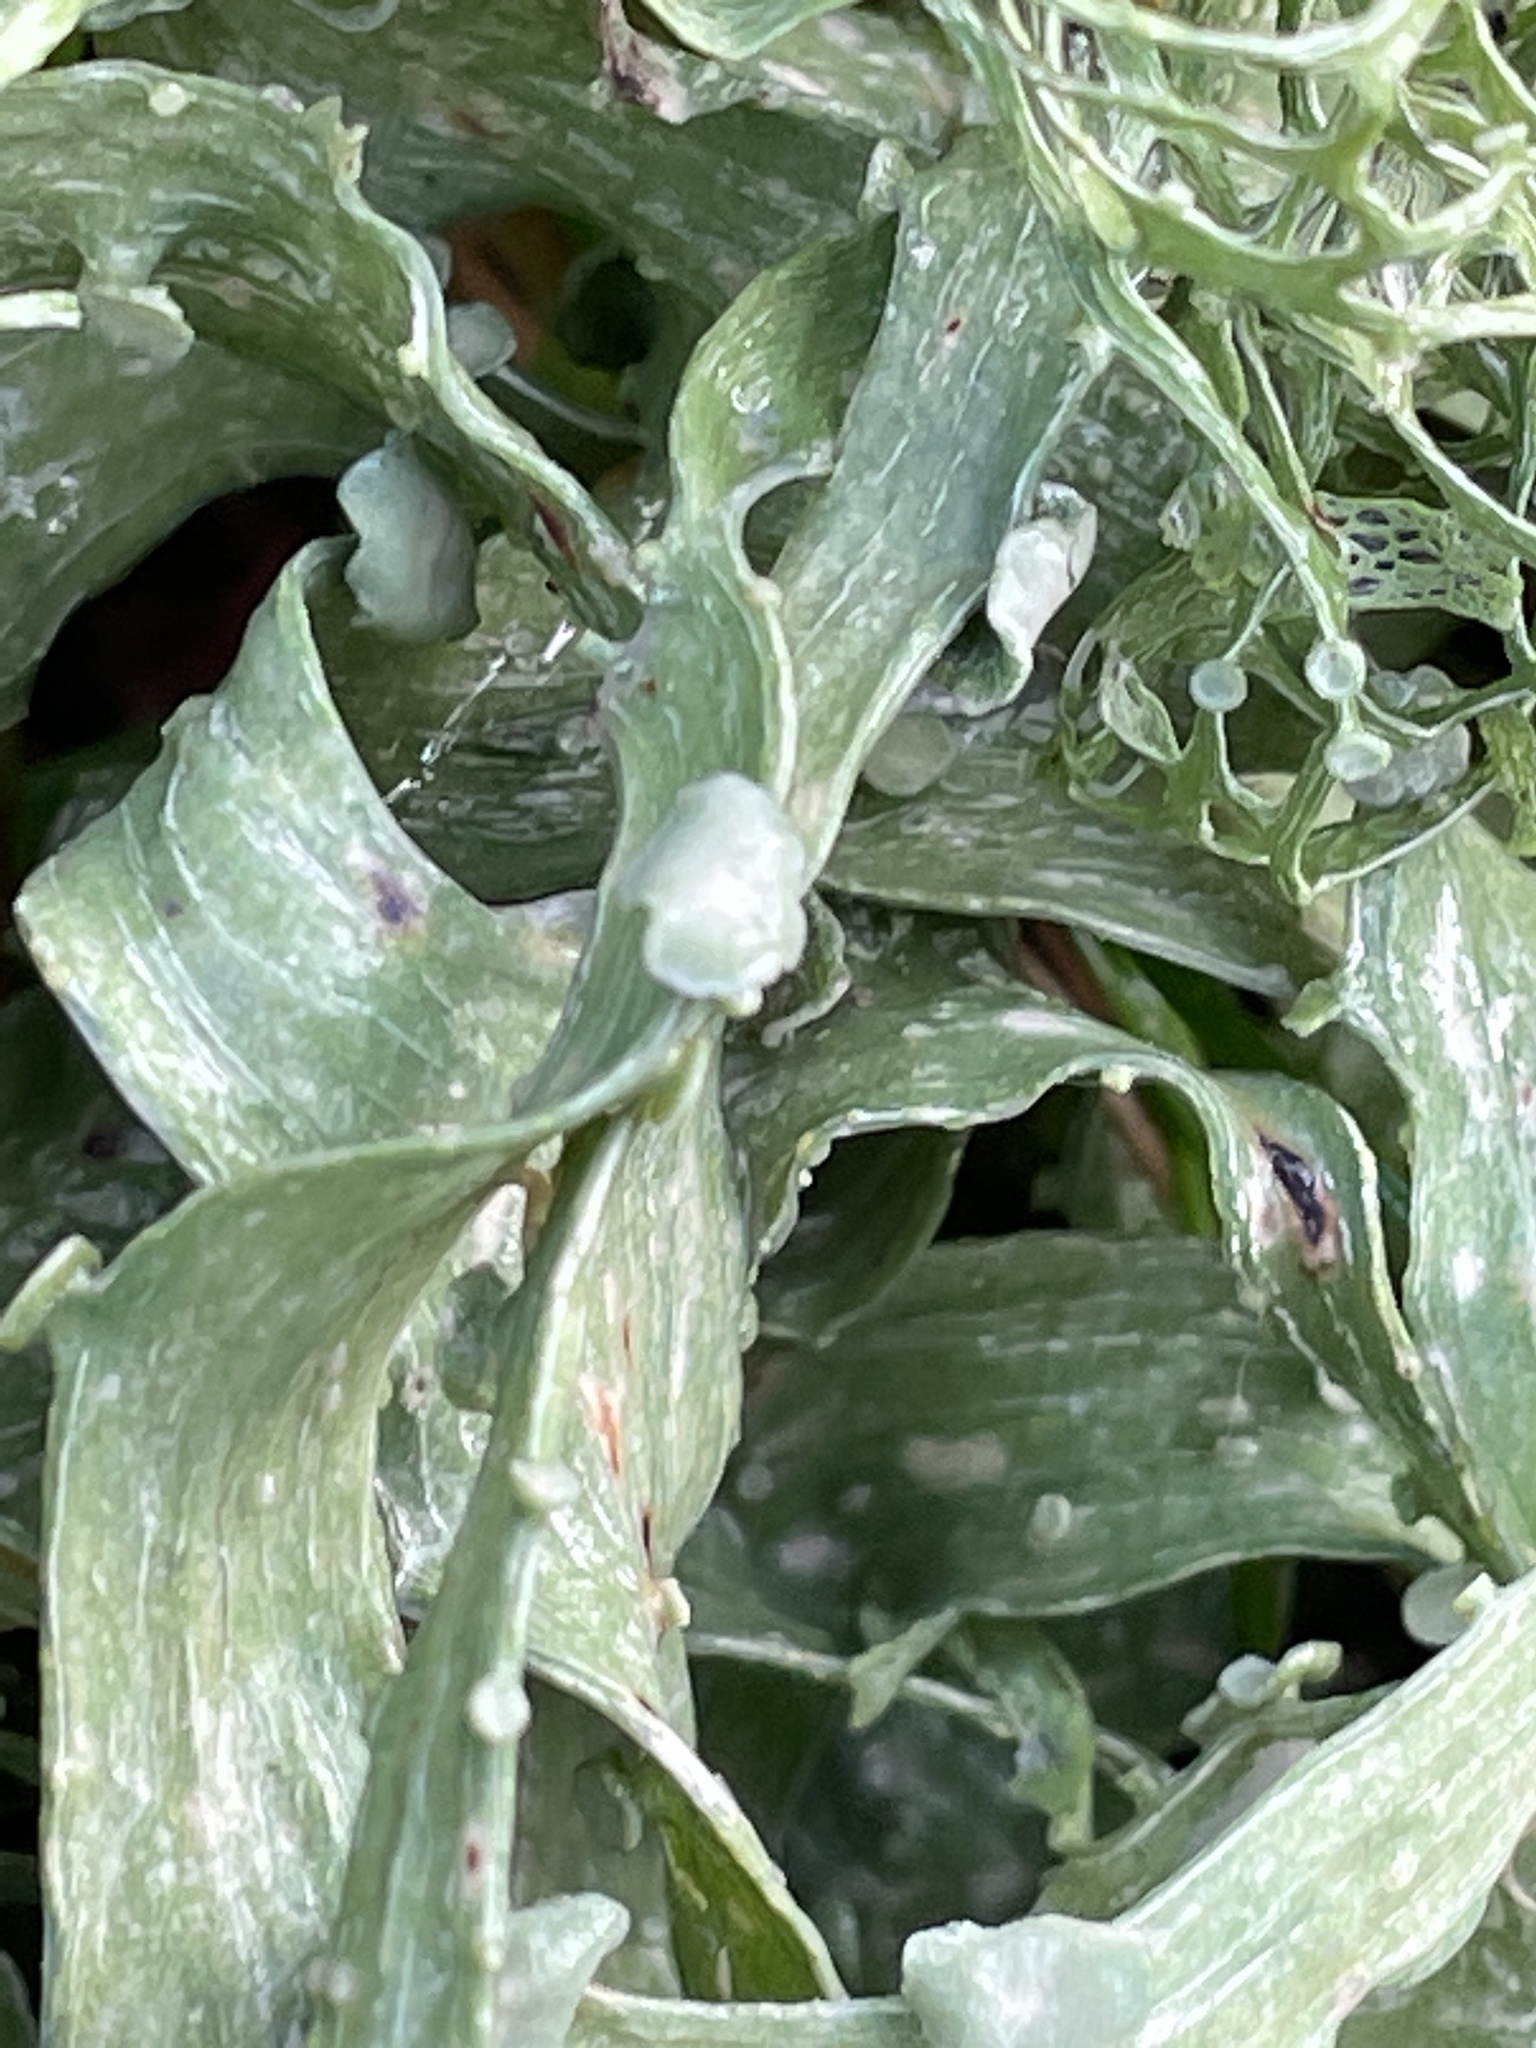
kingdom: Fungi
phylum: Ascomycota
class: Lecanoromycetes
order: Lecanorales
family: Ramalinaceae
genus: Ramalina
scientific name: Ramalina menziesii
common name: Lace lichen
